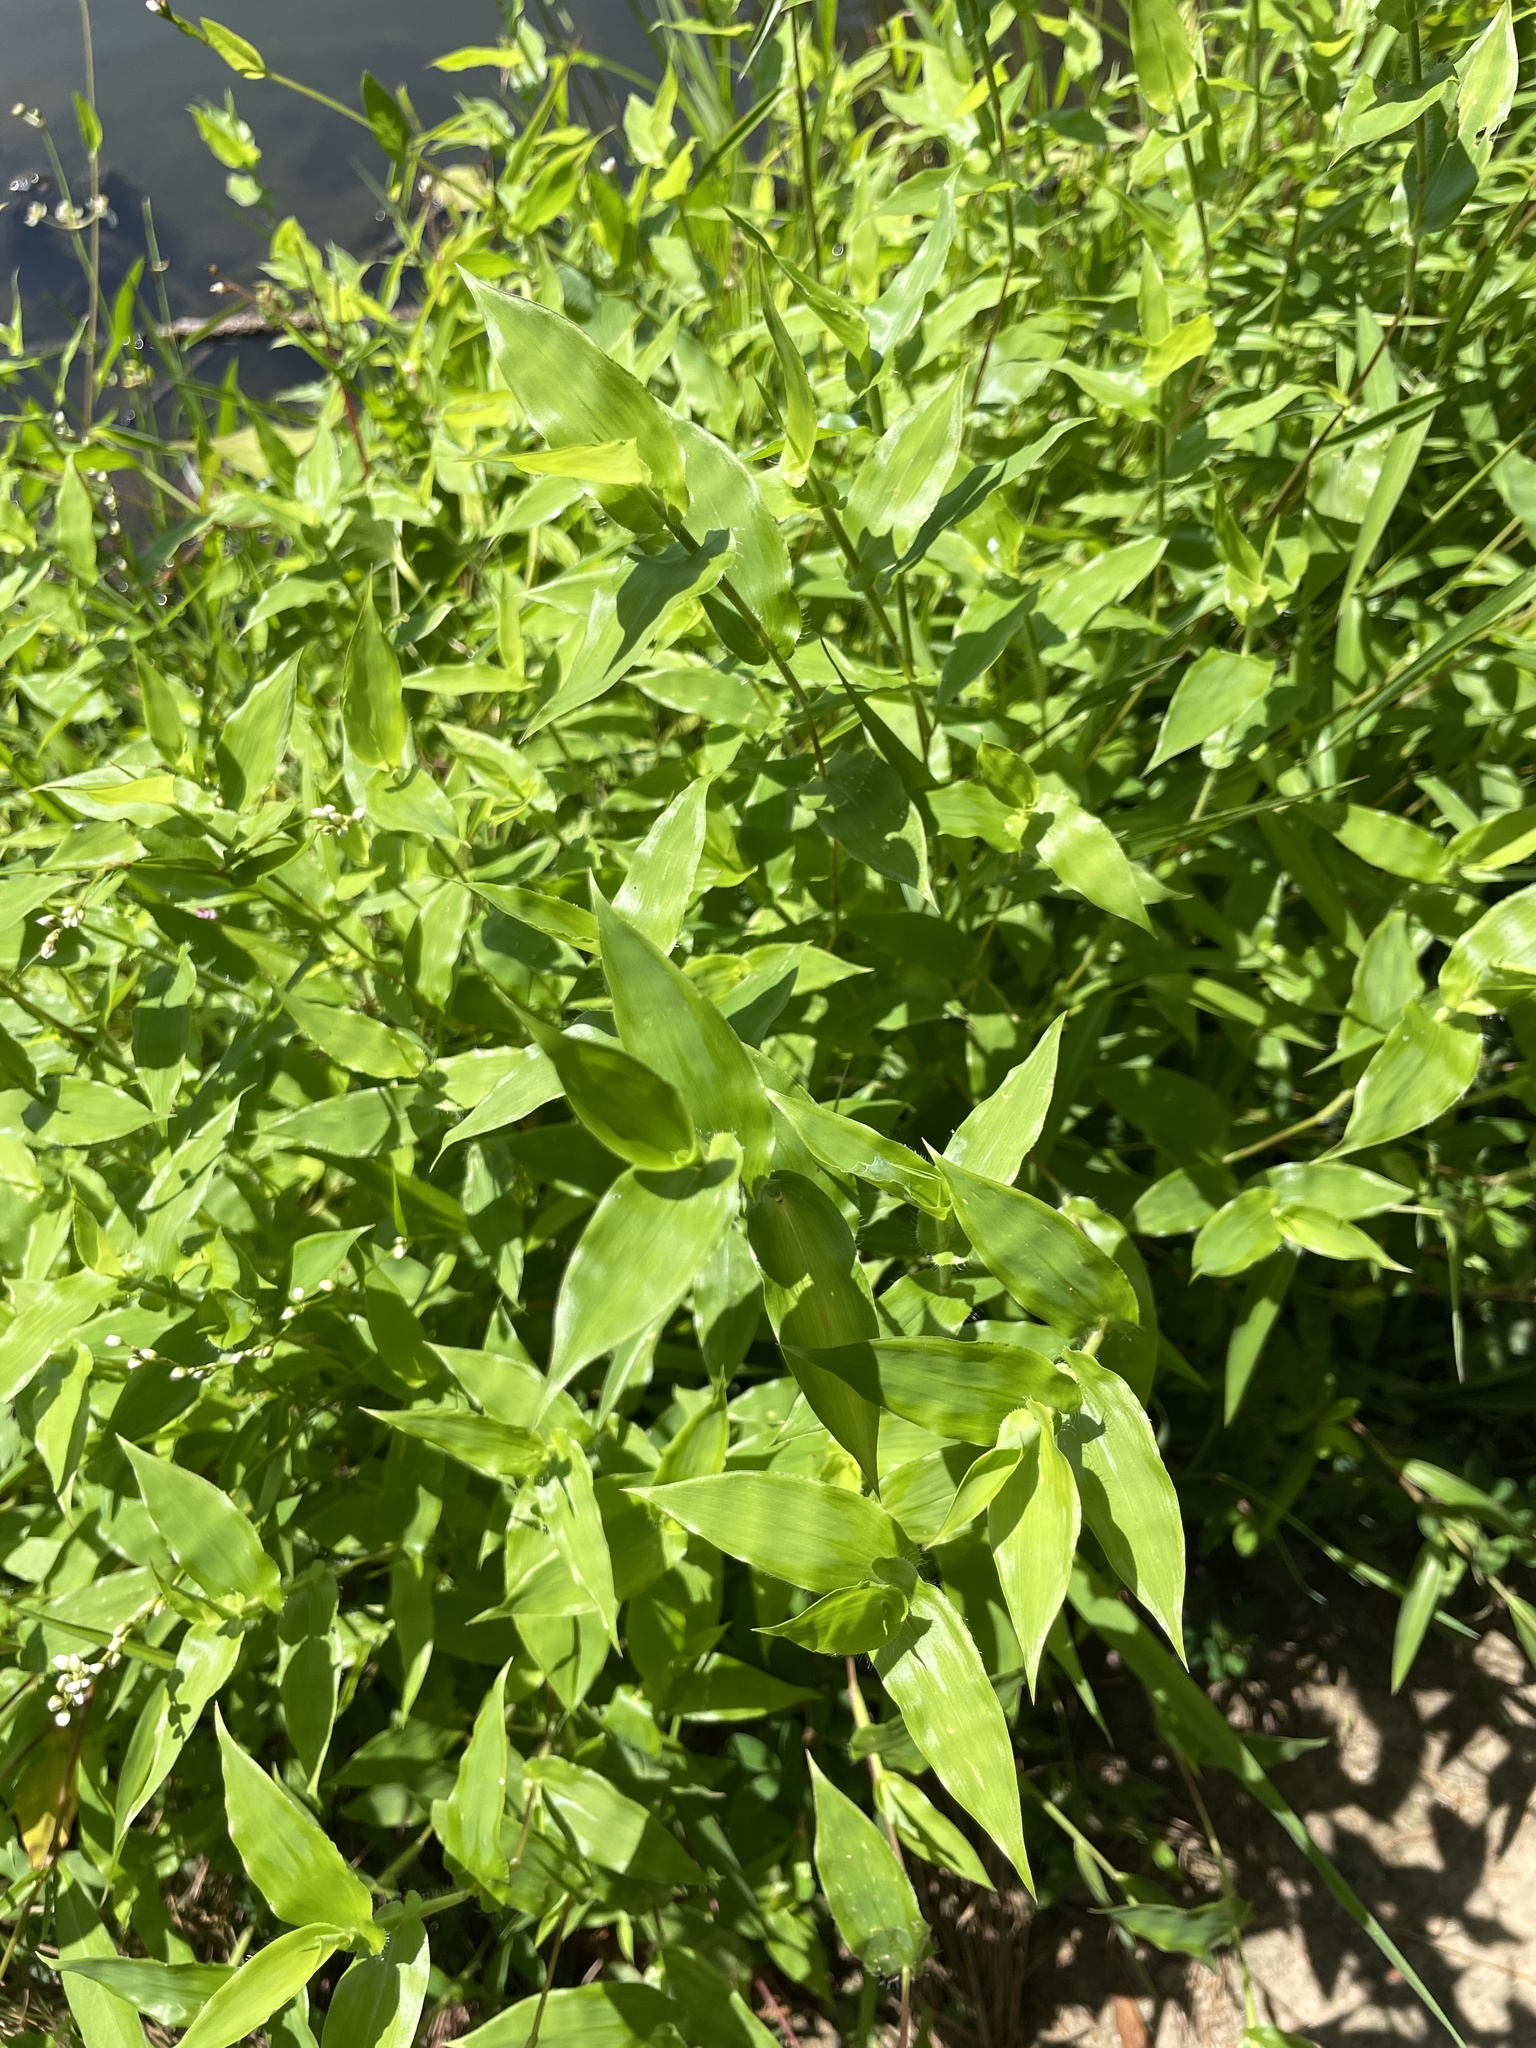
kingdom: Plantae
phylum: Tracheophyta
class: Liliopsida
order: Poales
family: Poaceae
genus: Arthraxon
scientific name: Arthraxon hispidus
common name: Small carpgrass
